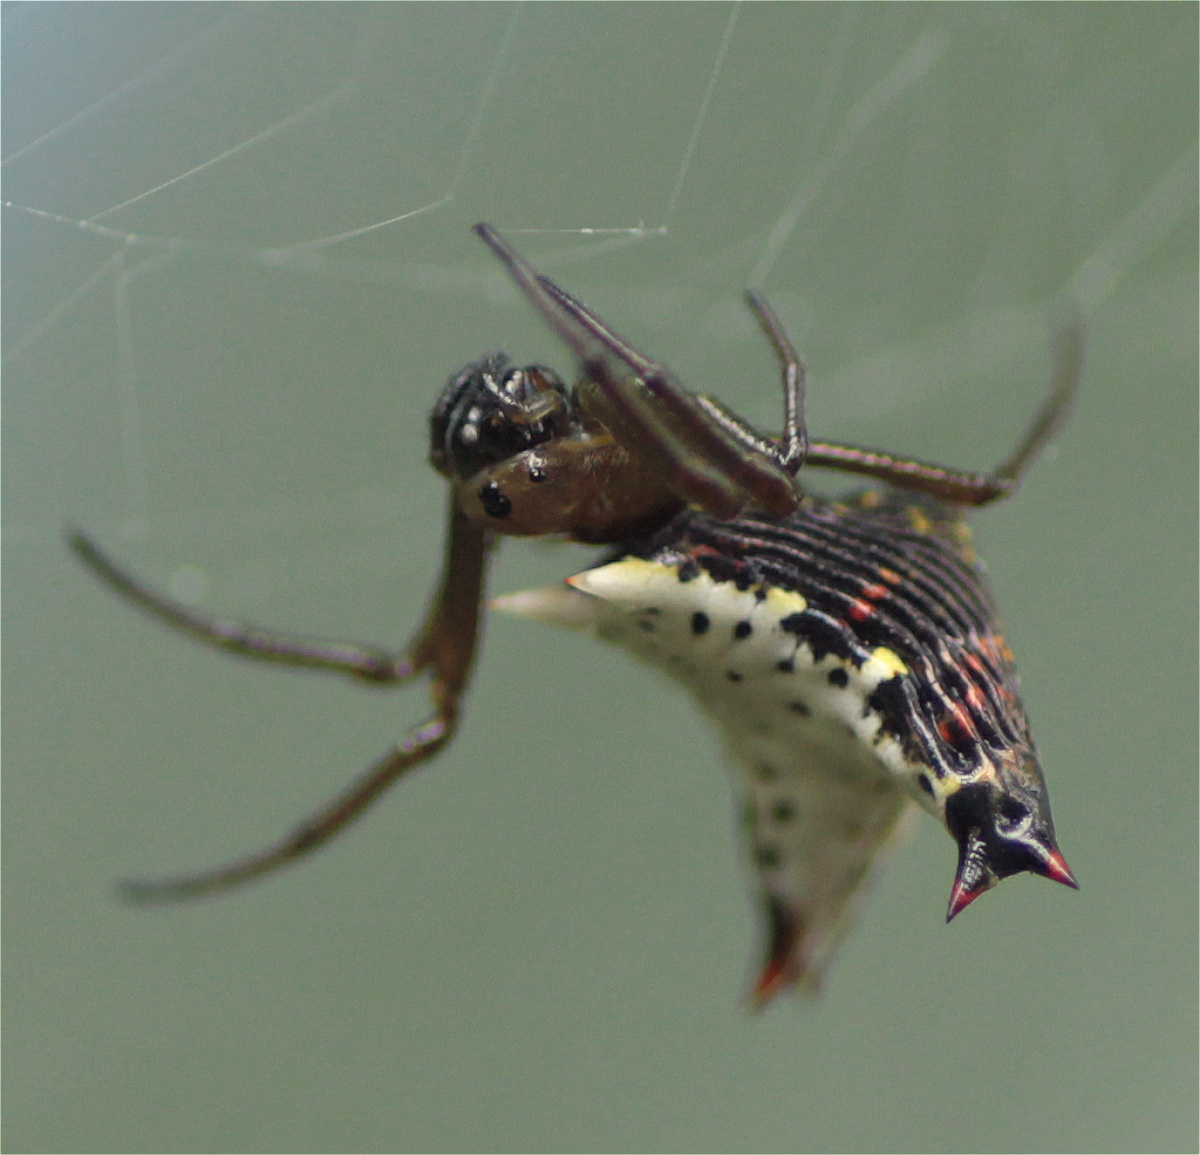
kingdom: Animalia
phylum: Arthropoda
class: Arachnida
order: Araneae
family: Araneidae
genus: Micrathena
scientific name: Micrathena lucasi
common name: Orb weavers
